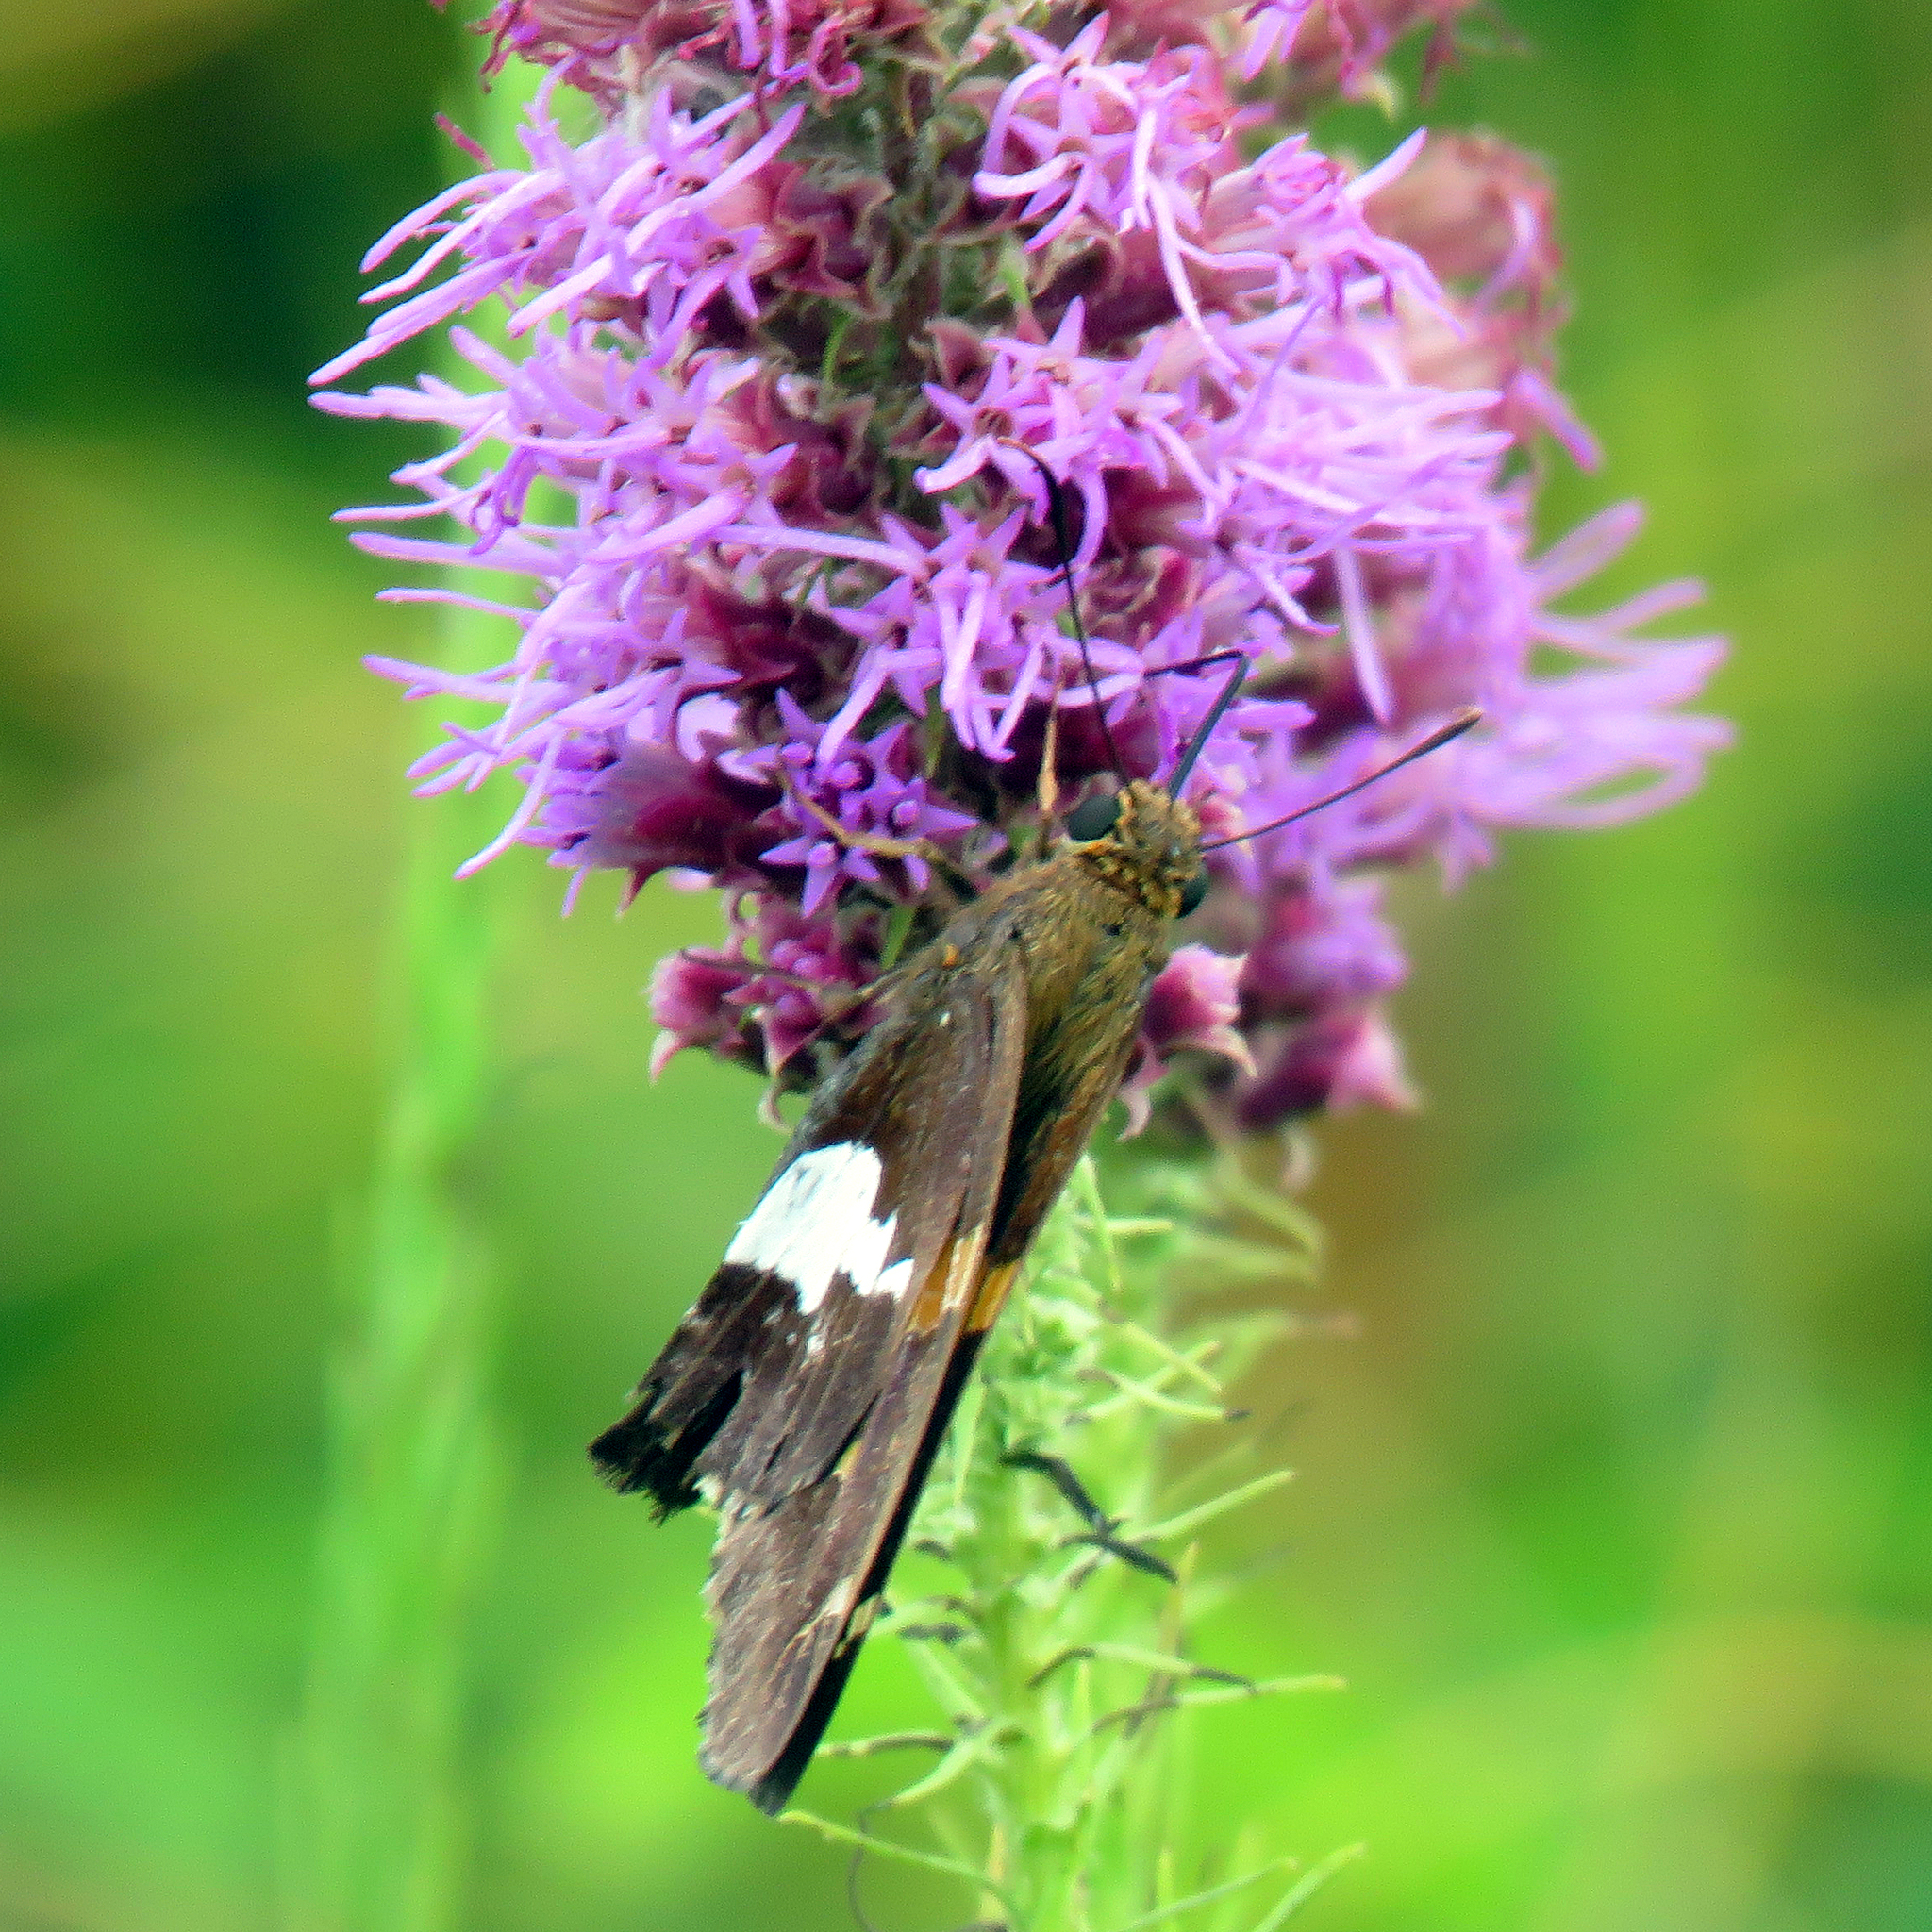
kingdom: Animalia
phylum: Arthropoda
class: Insecta
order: Lepidoptera
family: Hesperiidae
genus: Epargyreus
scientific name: Epargyreus clarus
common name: Silver-spotted skipper
